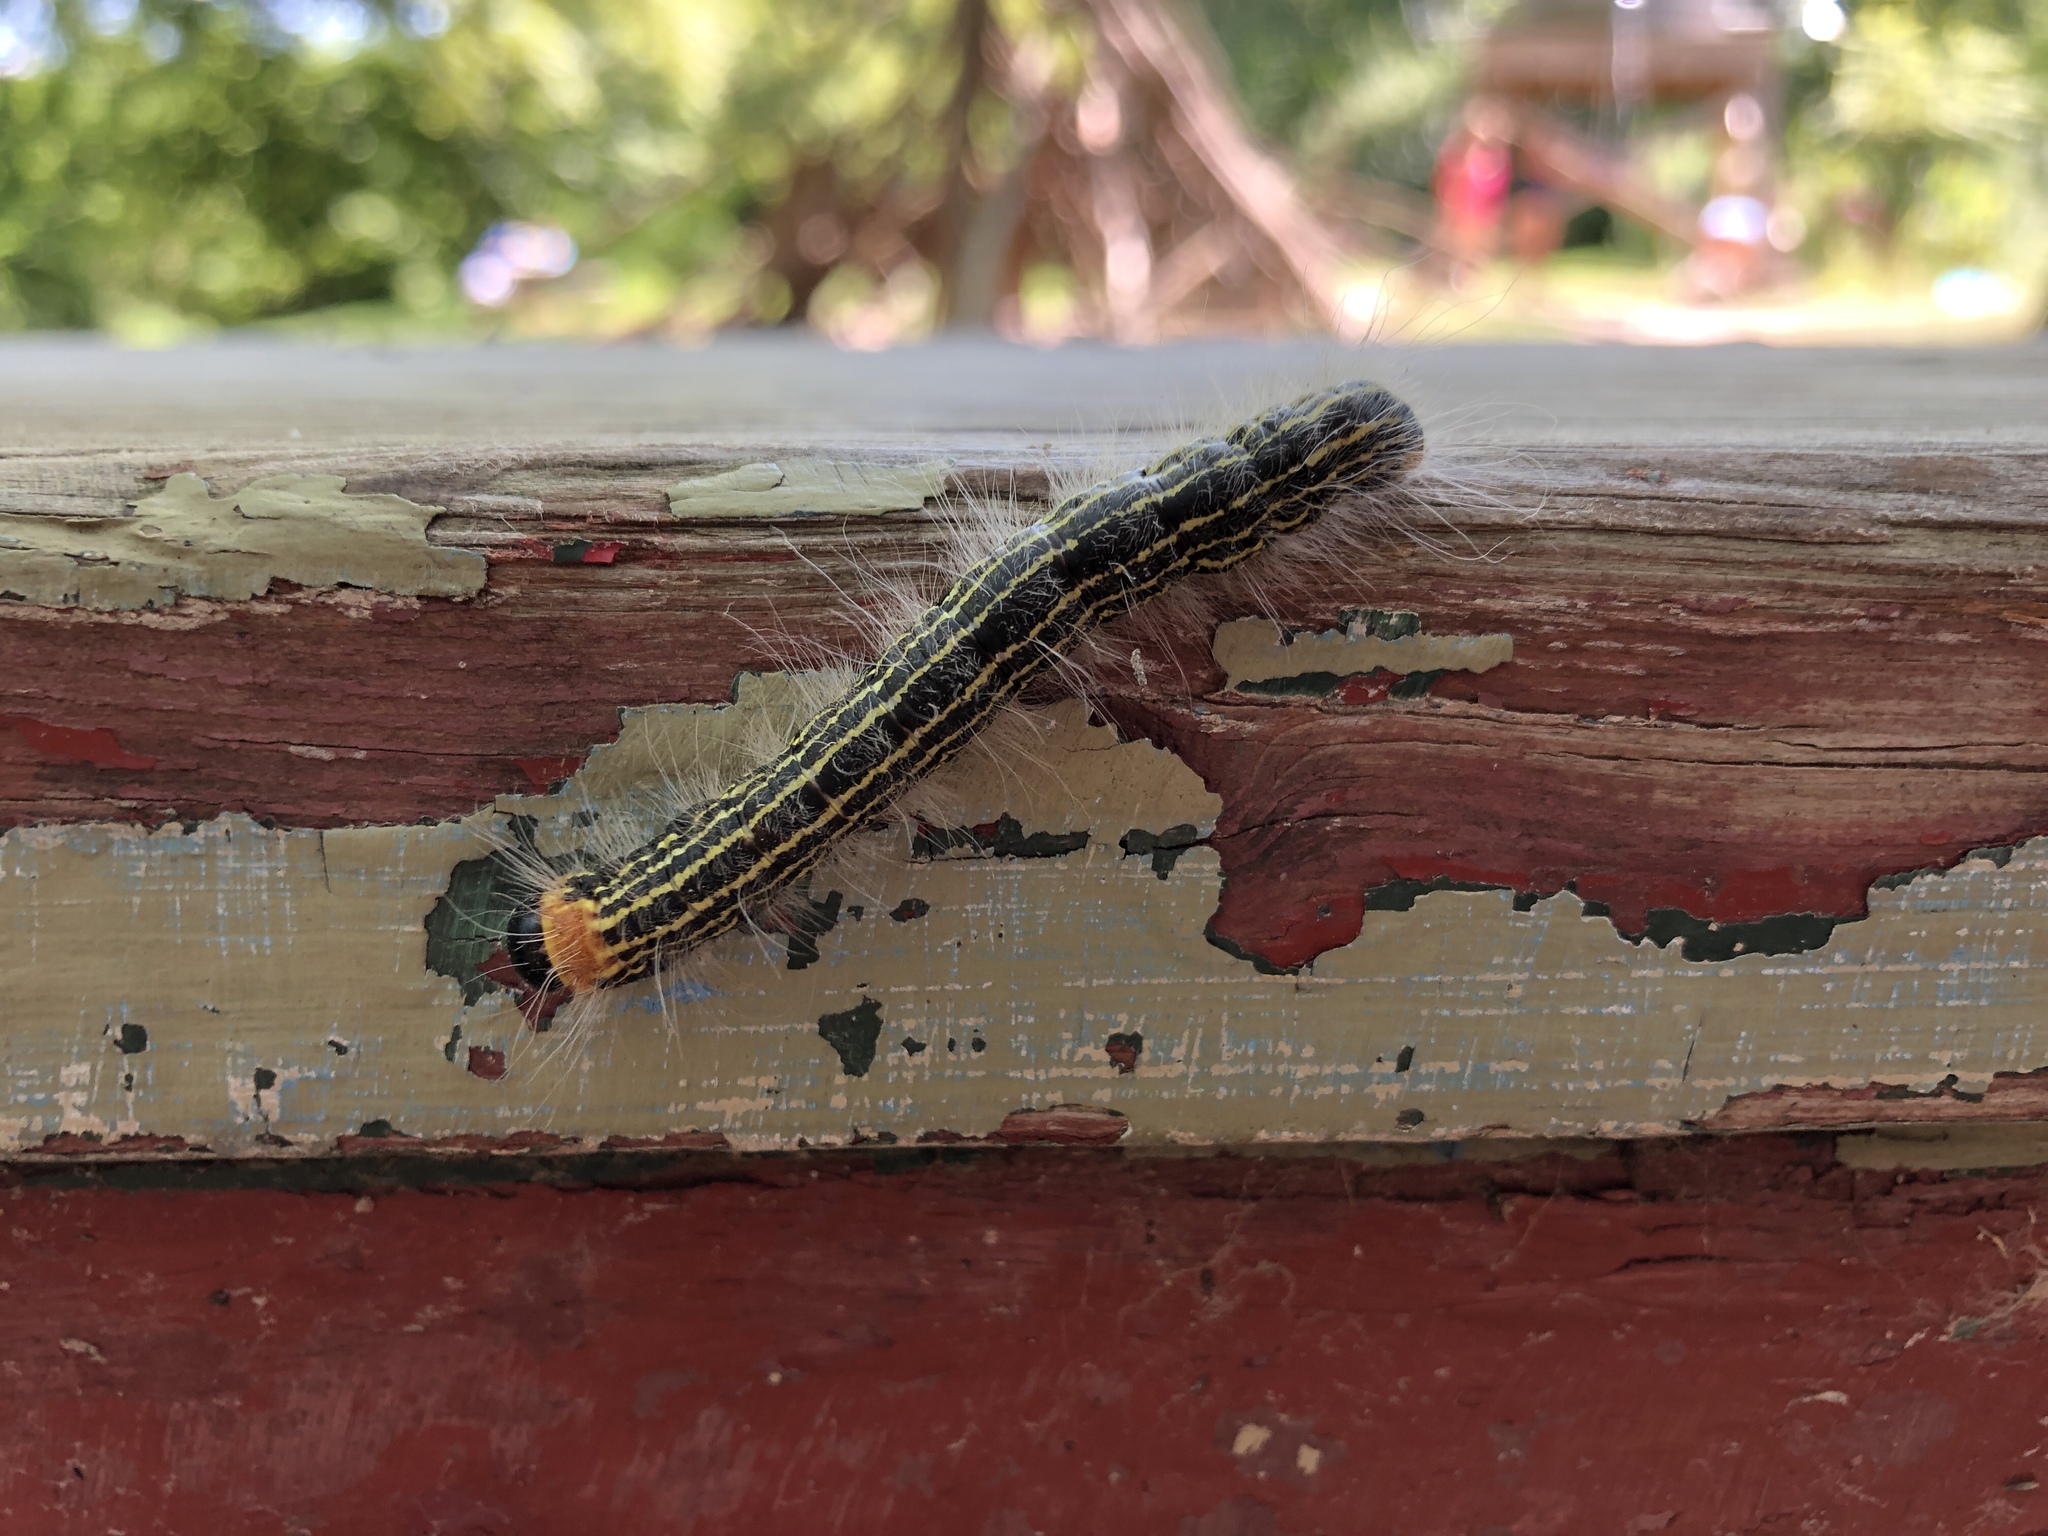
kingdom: Animalia
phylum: Arthropoda
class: Insecta
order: Lepidoptera
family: Notodontidae
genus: Datana
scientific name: Datana ministra
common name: Yellow-necked caterpillar moth
